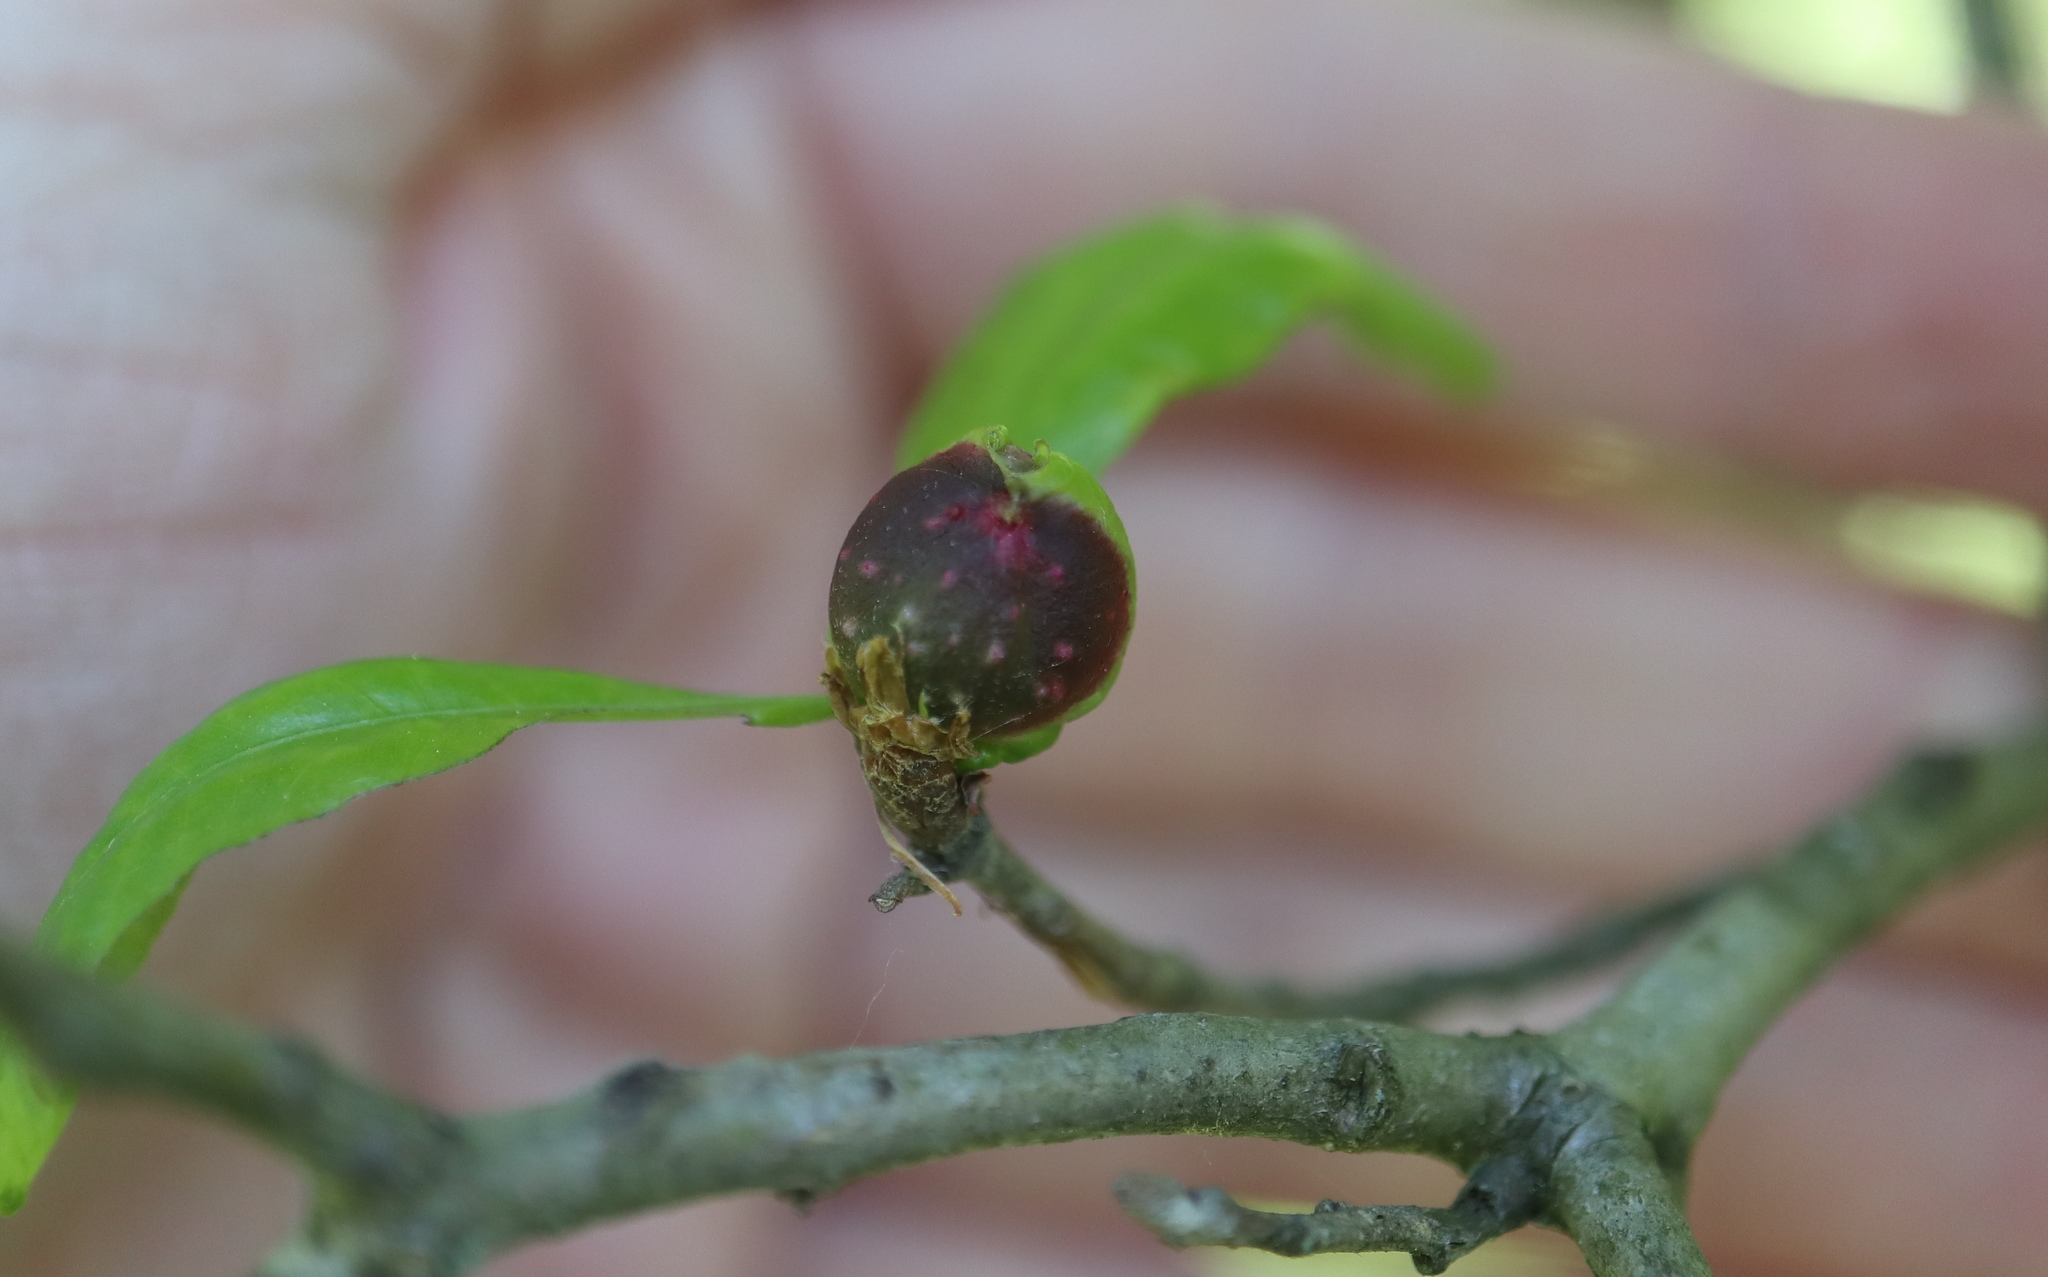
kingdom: Animalia
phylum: Arthropoda
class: Insecta
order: Hymenoptera
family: Cynipidae
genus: Dryocosmus
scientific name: Dryocosmus
